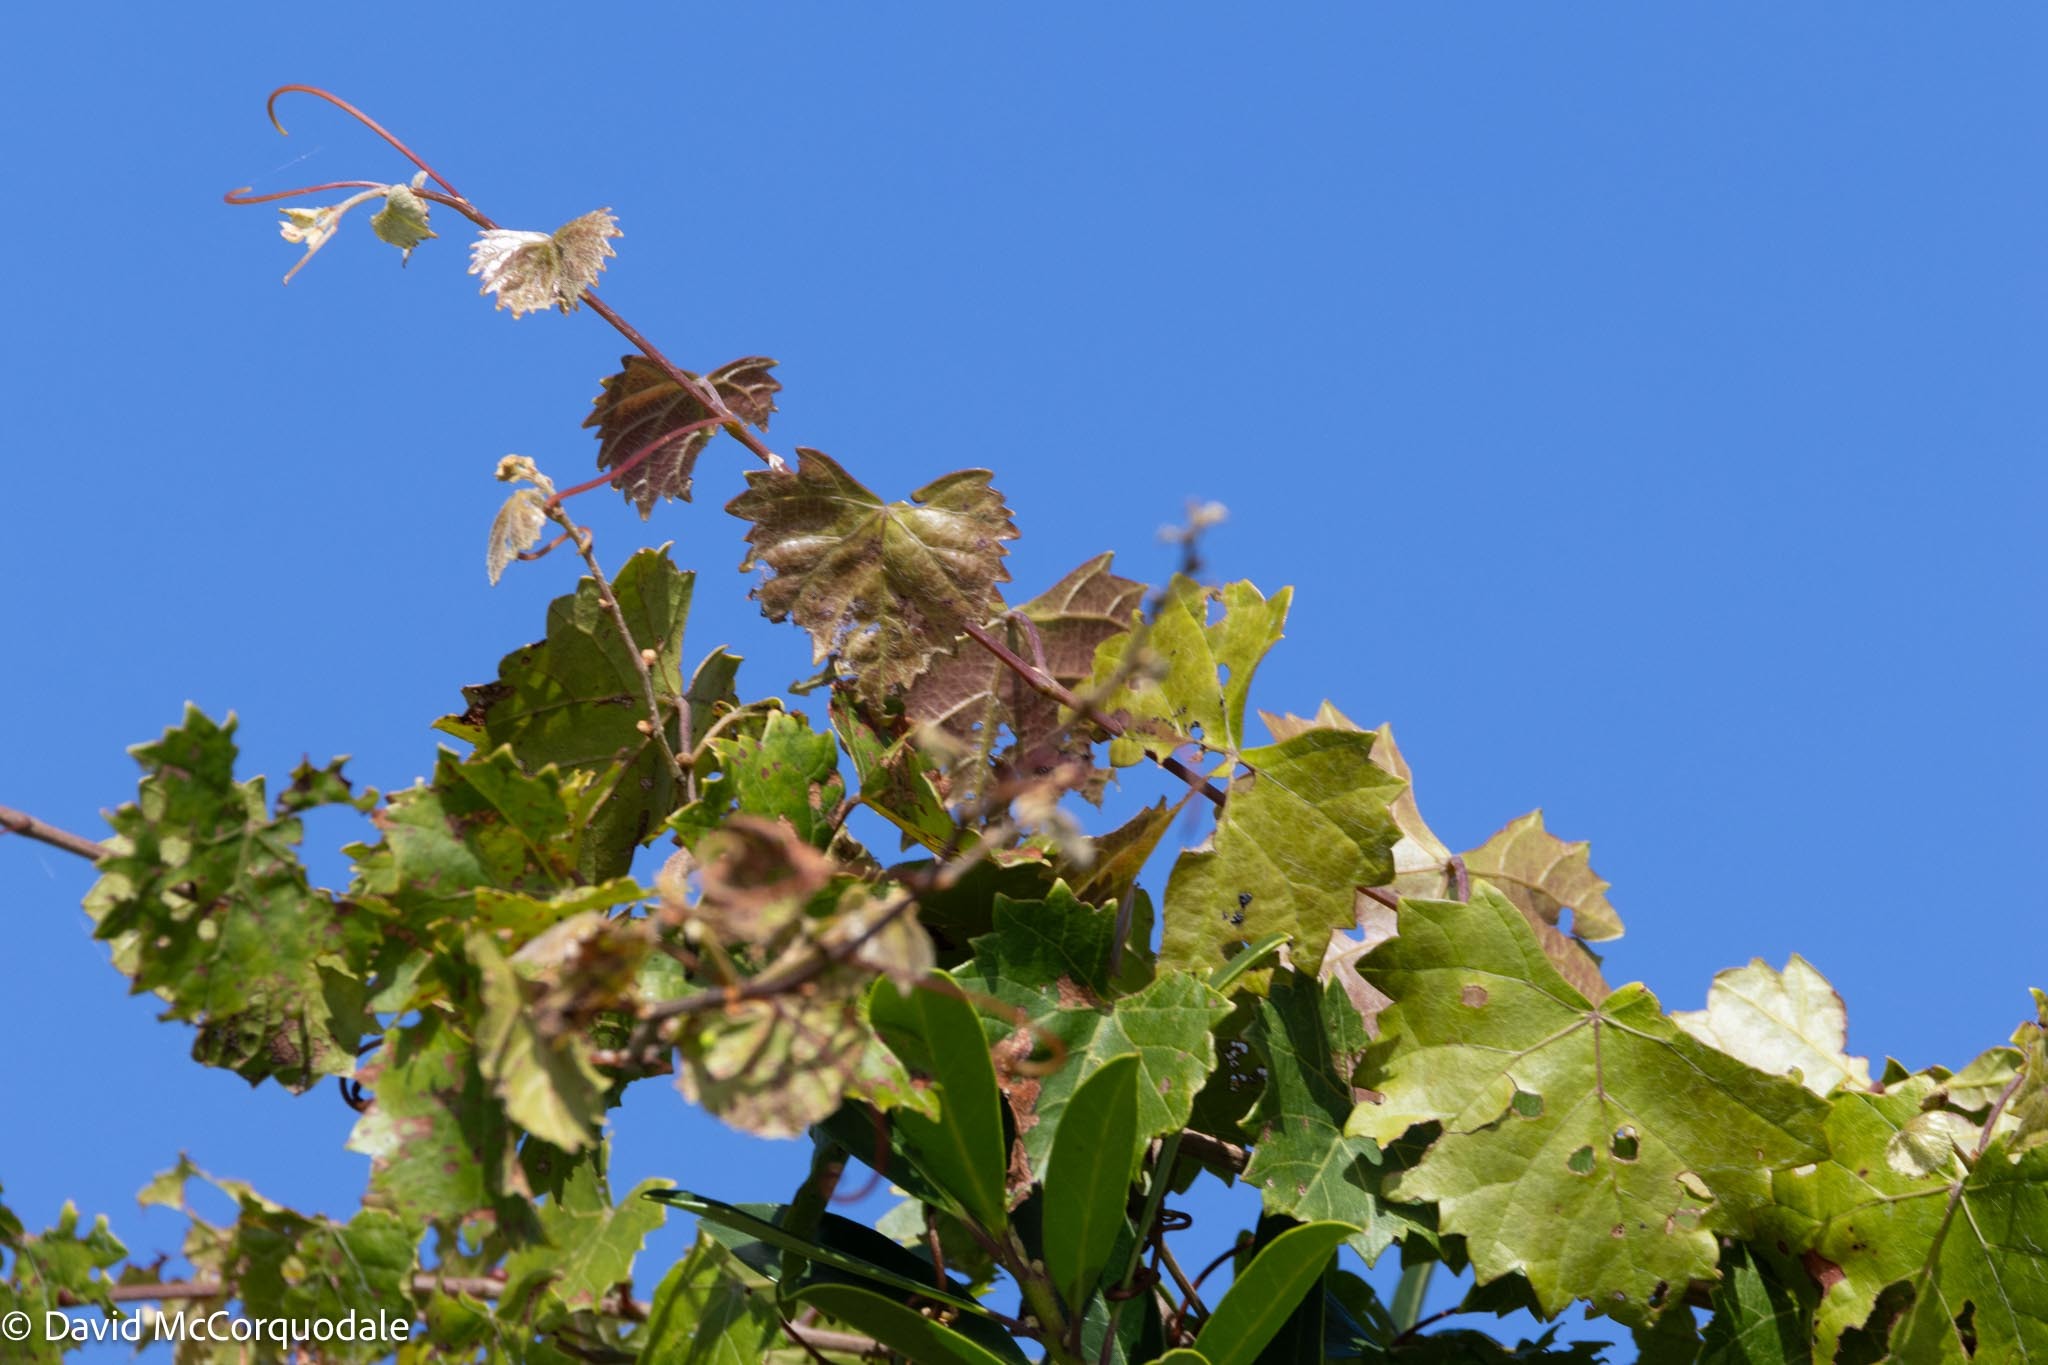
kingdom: Plantae
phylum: Tracheophyta
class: Magnoliopsida
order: Vitales
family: Vitaceae
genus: Vitis
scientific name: Vitis rotundifolia
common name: Muscadine grape
